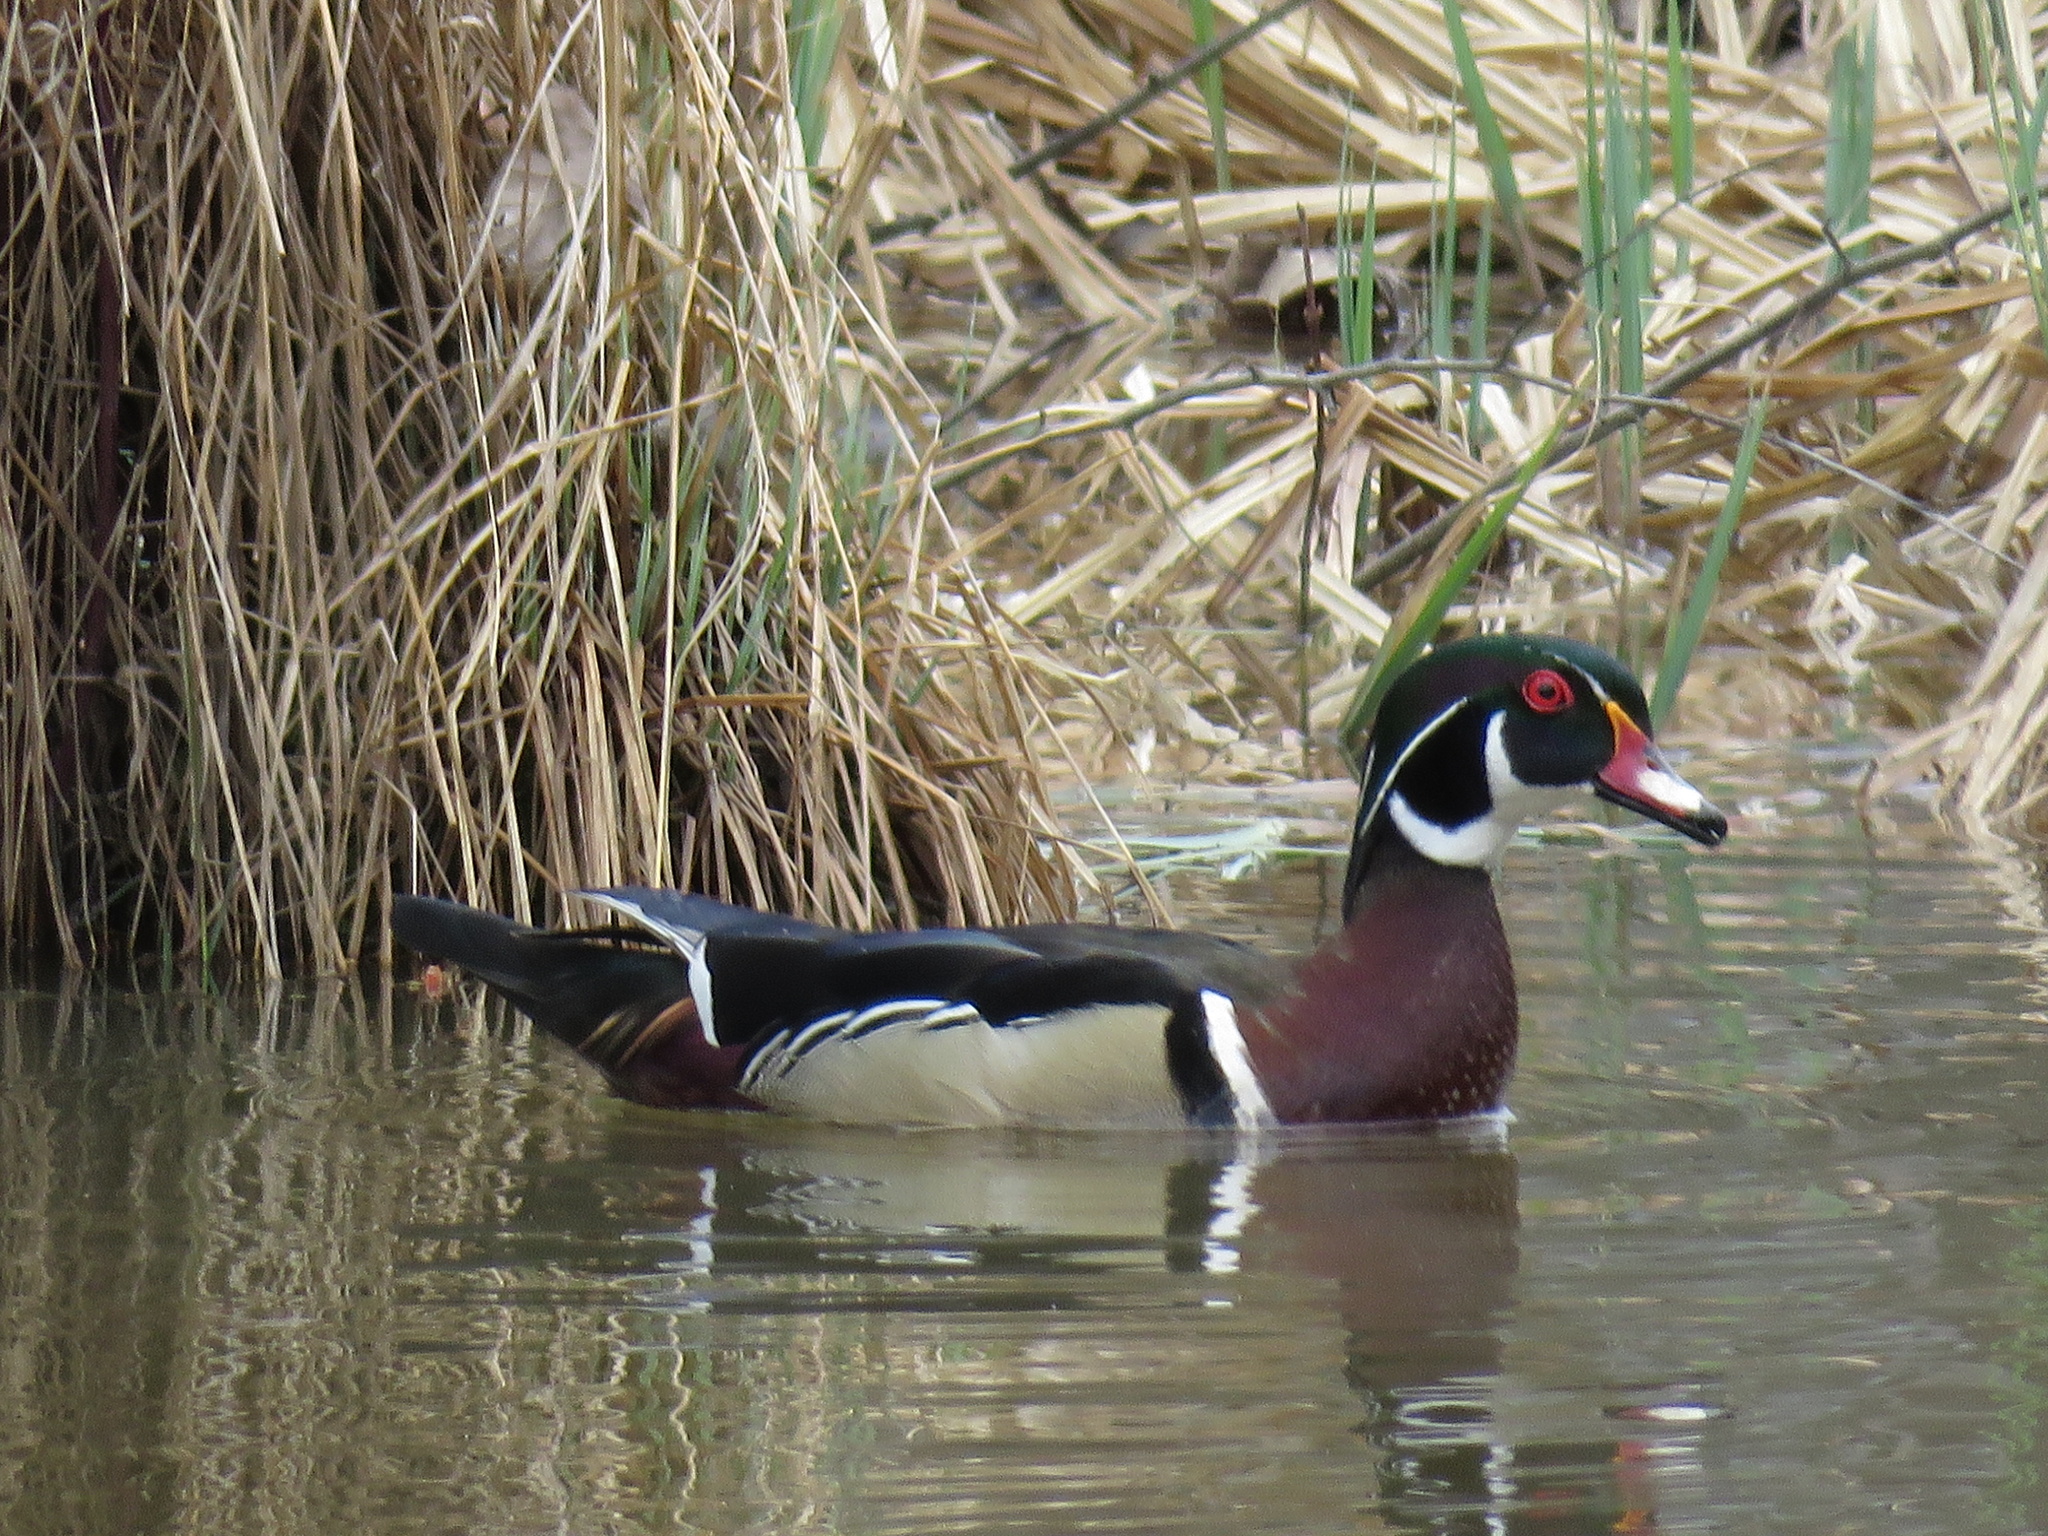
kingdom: Animalia
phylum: Chordata
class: Aves
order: Anseriformes
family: Anatidae
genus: Aix
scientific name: Aix sponsa
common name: Wood duck
